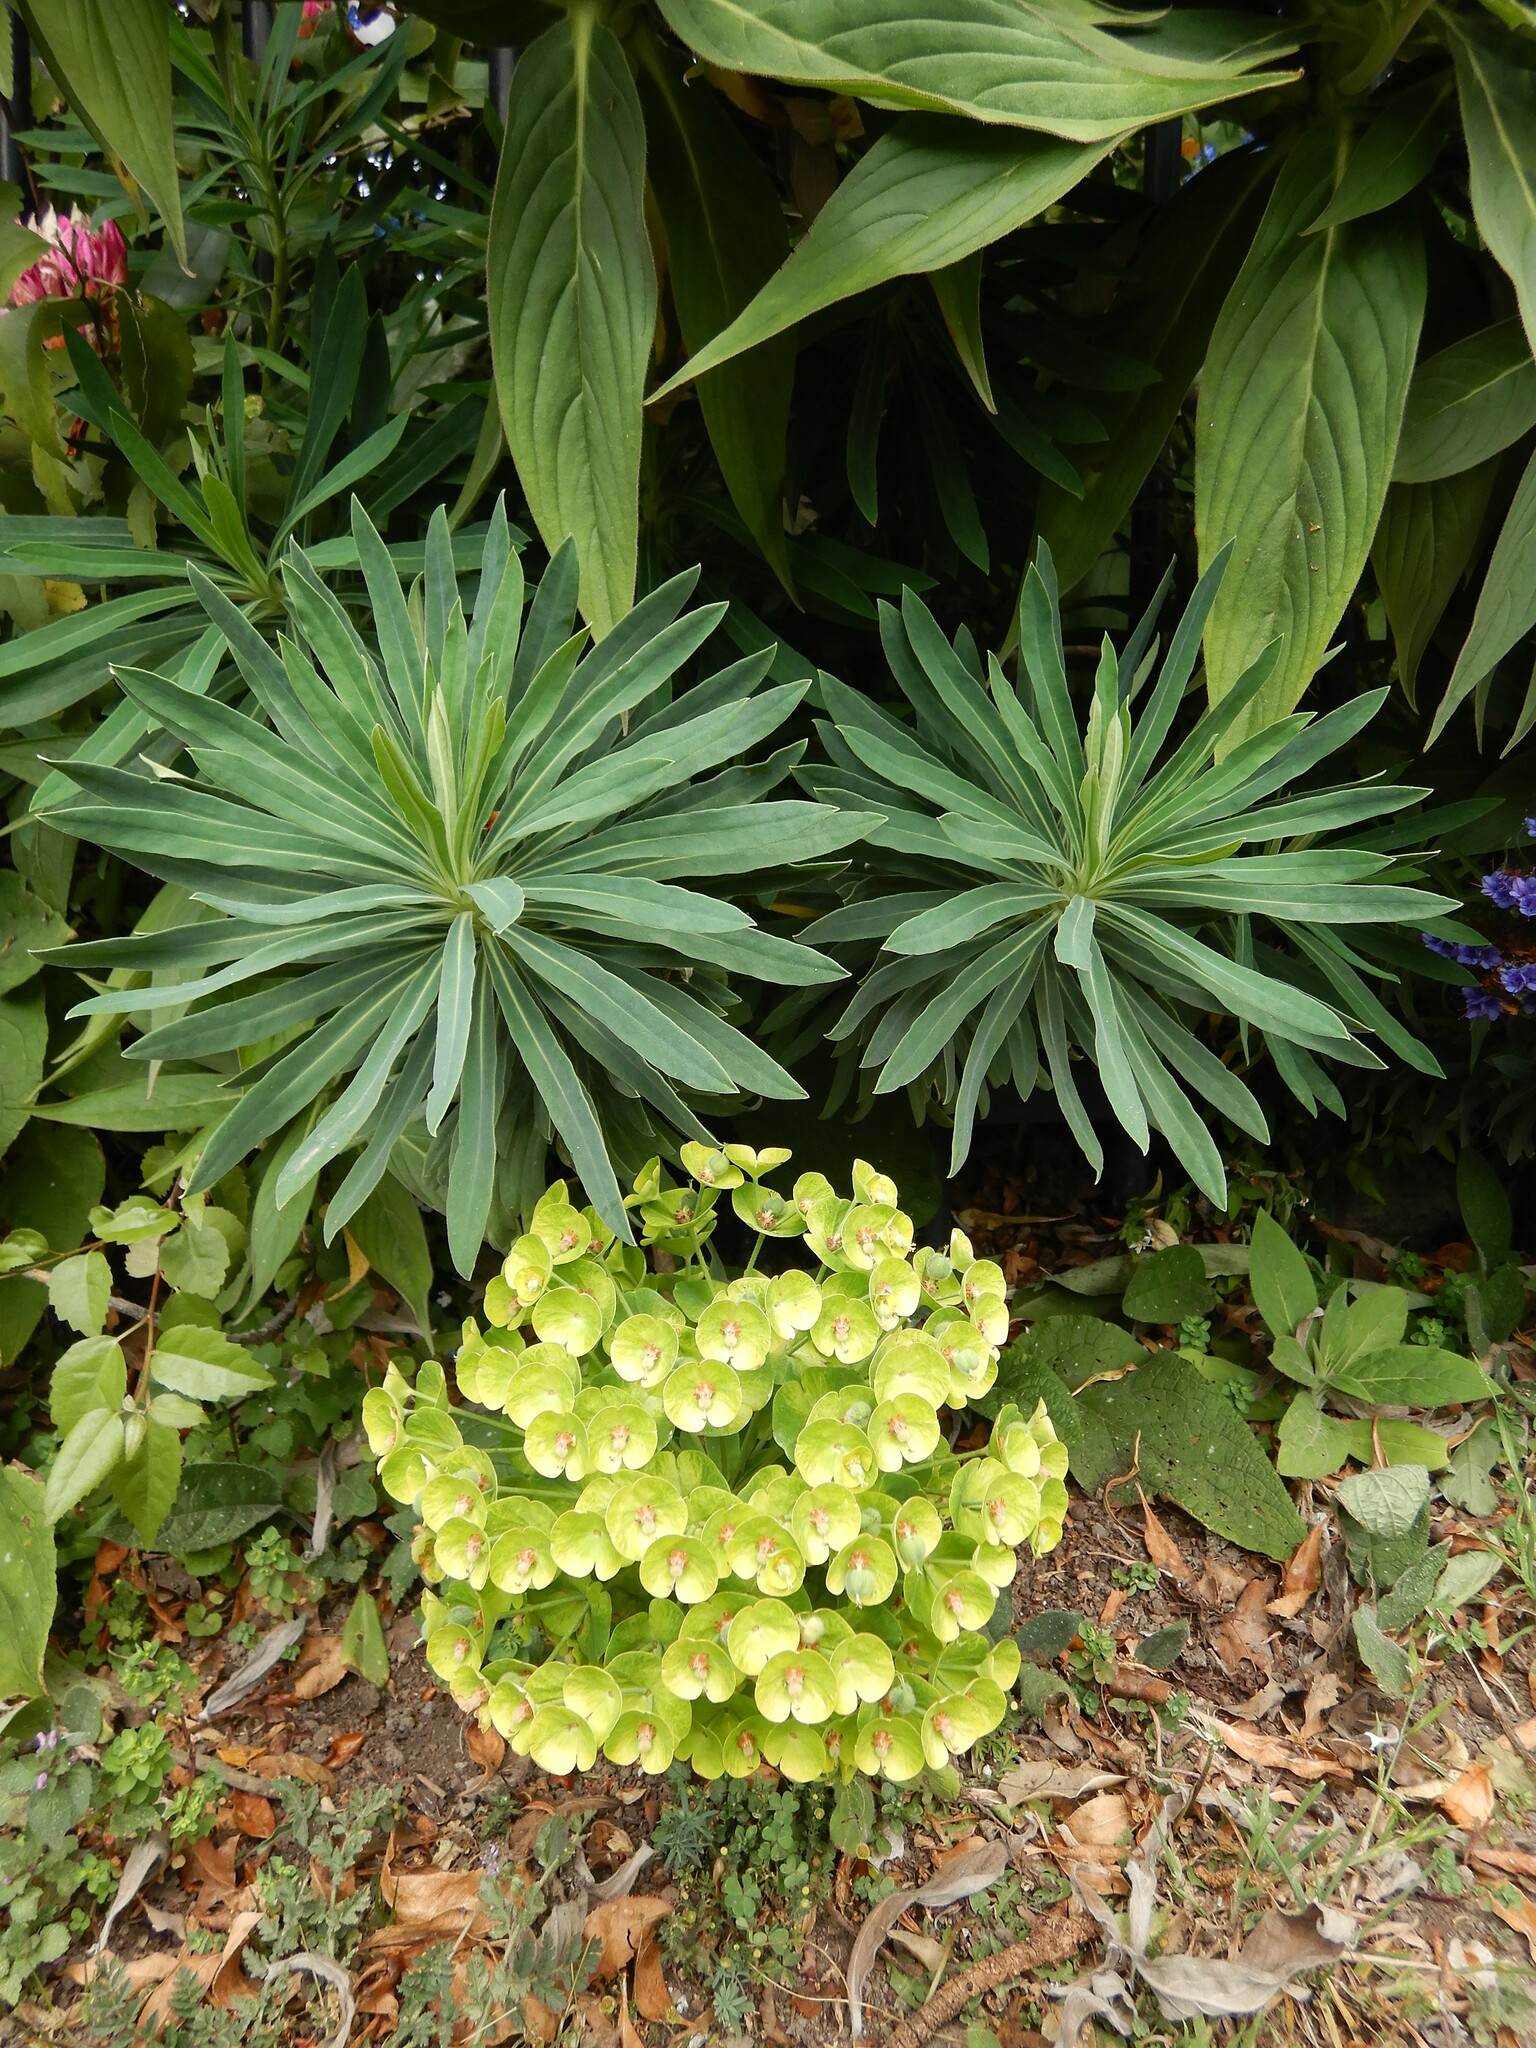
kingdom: Plantae
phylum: Tracheophyta
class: Magnoliopsida
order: Malpighiales
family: Euphorbiaceae
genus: Euphorbia
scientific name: Euphorbia characias
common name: Mediterranean spurge
